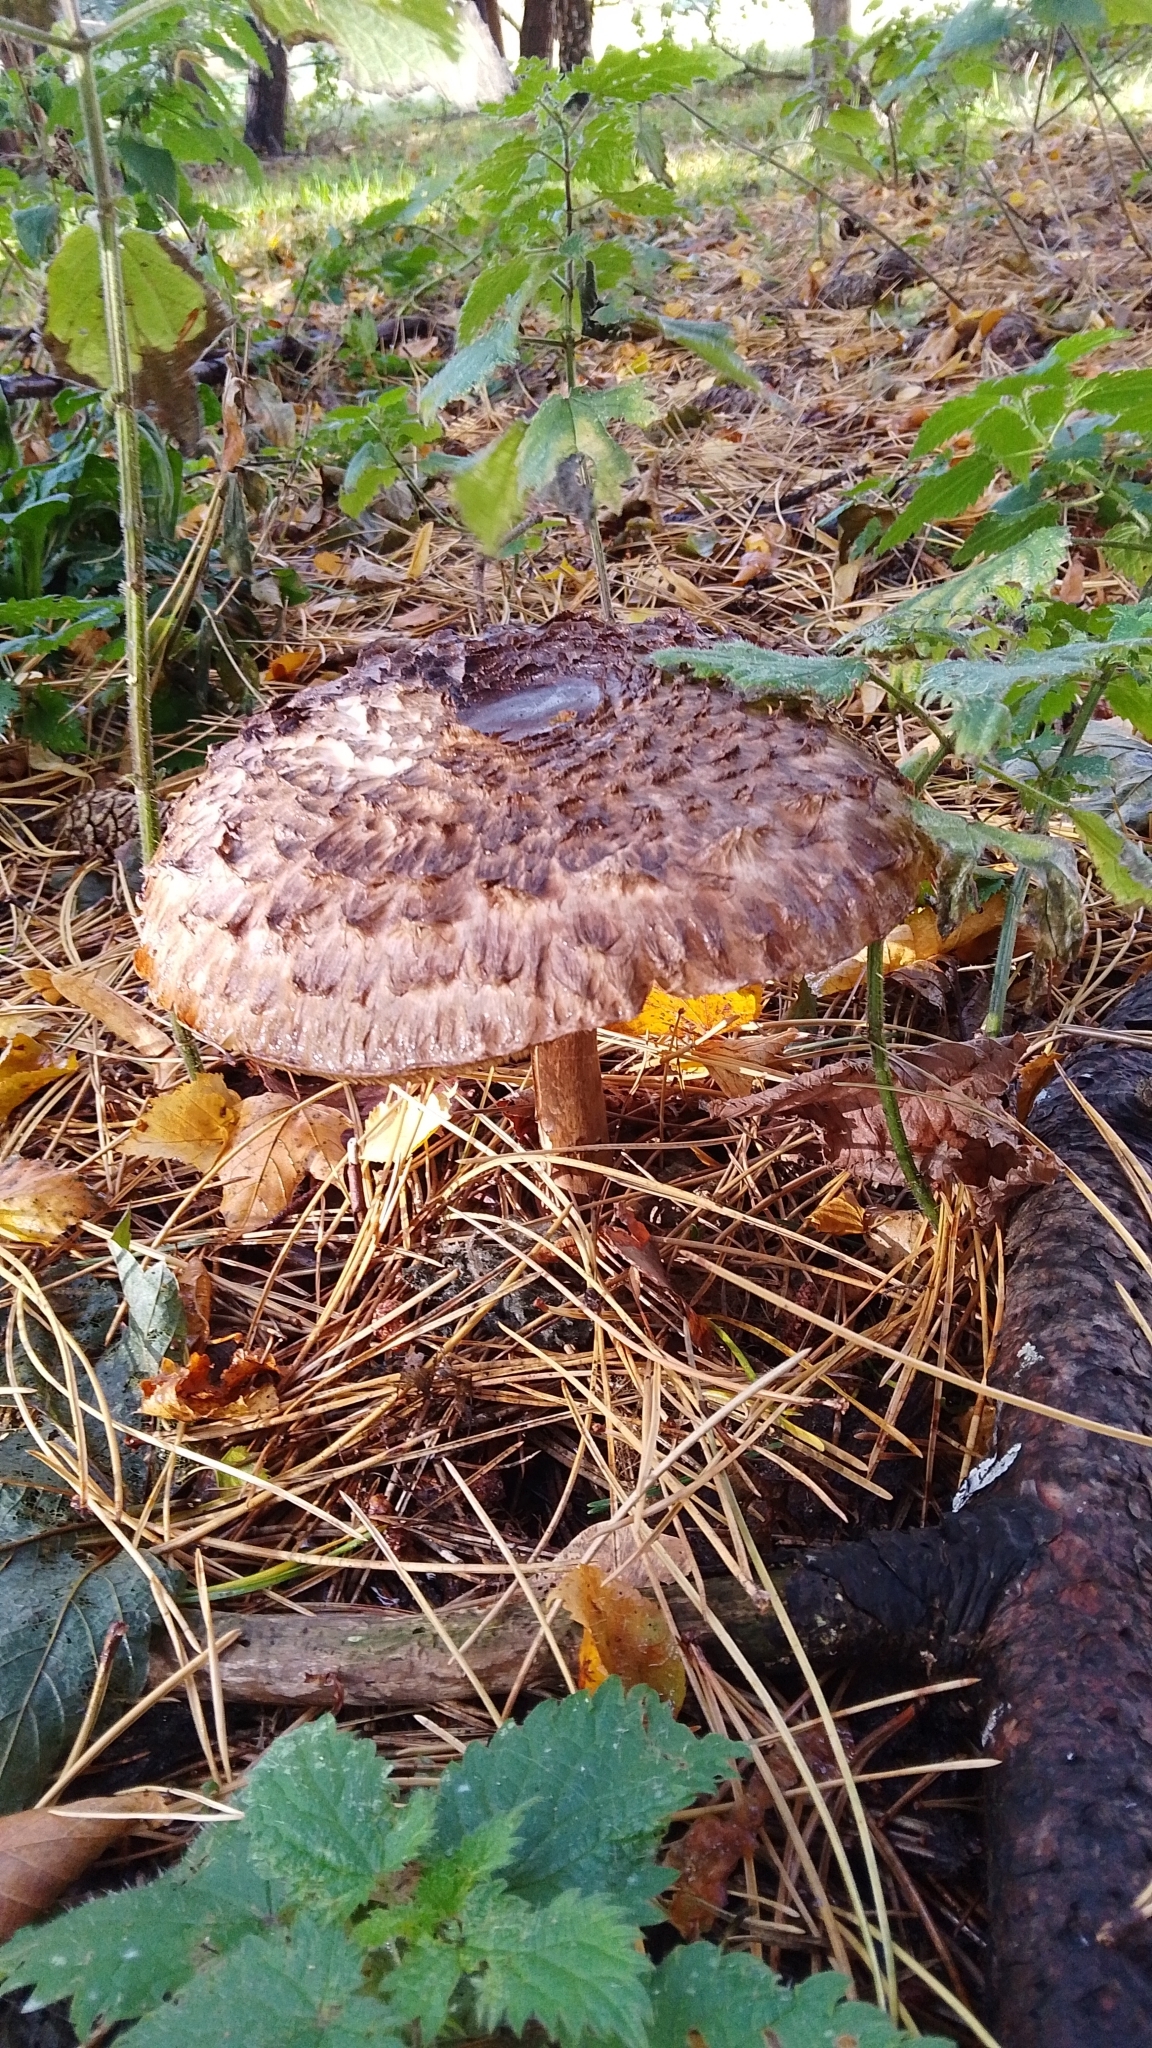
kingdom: Fungi
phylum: Basidiomycota
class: Agaricomycetes
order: Agaricales
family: Agaricaceae
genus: Chlorophyllum
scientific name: Chlorophyllum rhacodes
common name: Shaggy parasol
